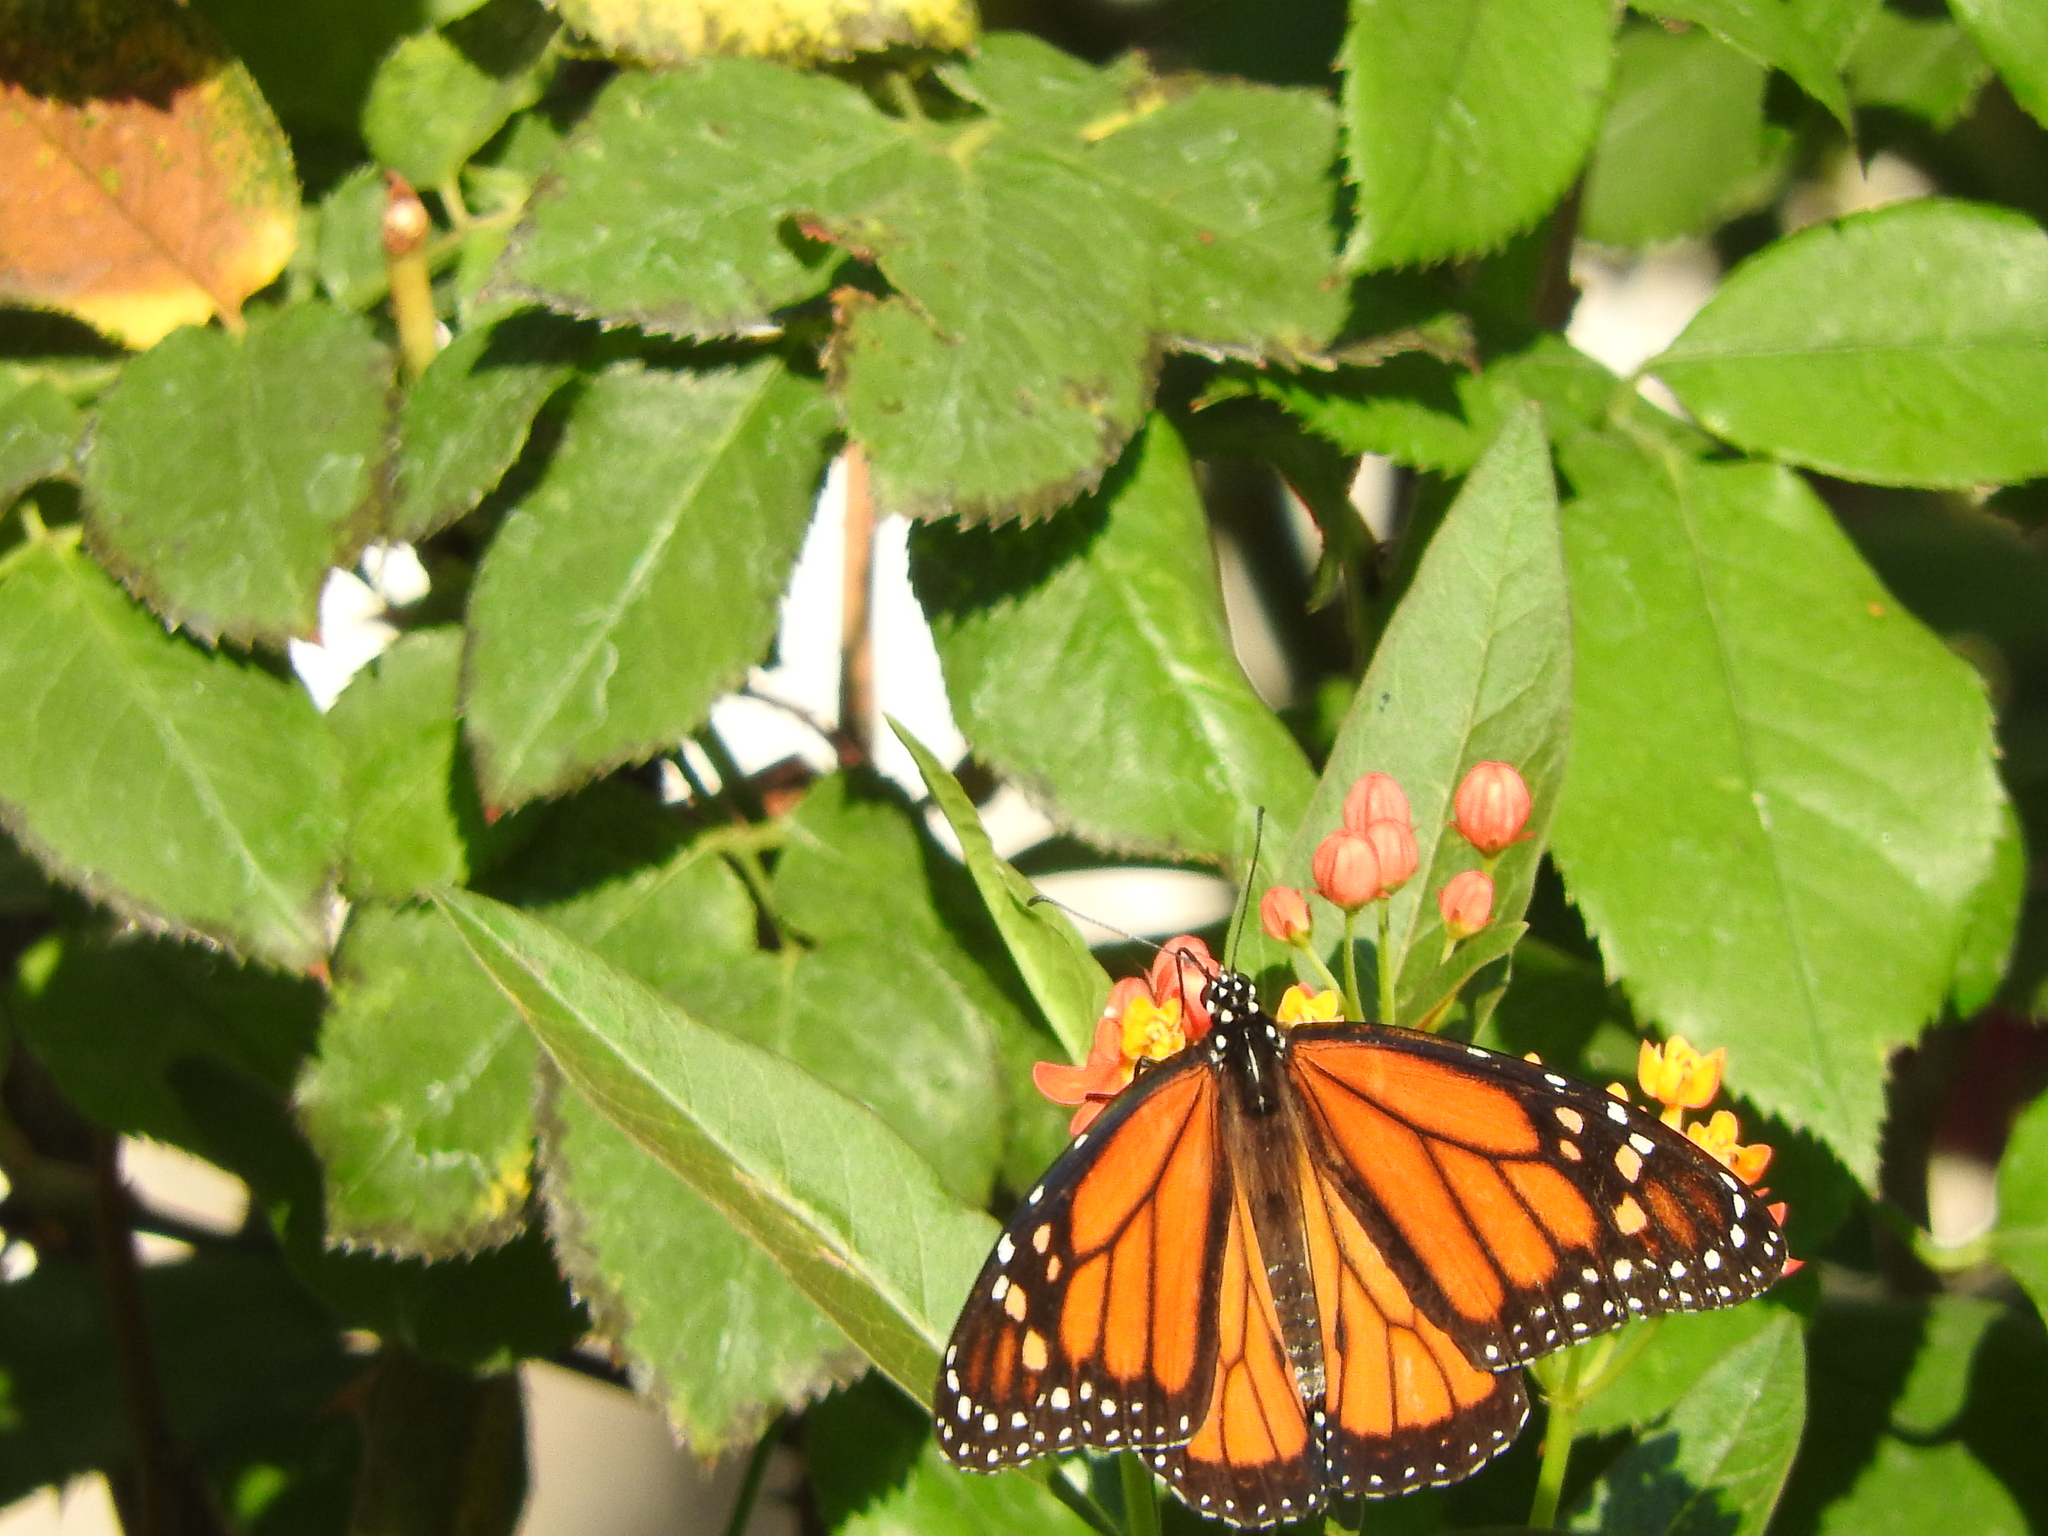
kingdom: Animalia
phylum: Arthropoda
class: Insecta
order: Lepidoptera
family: Nymphalidae
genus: Danaus
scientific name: Danaus plexippus
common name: Monarch
